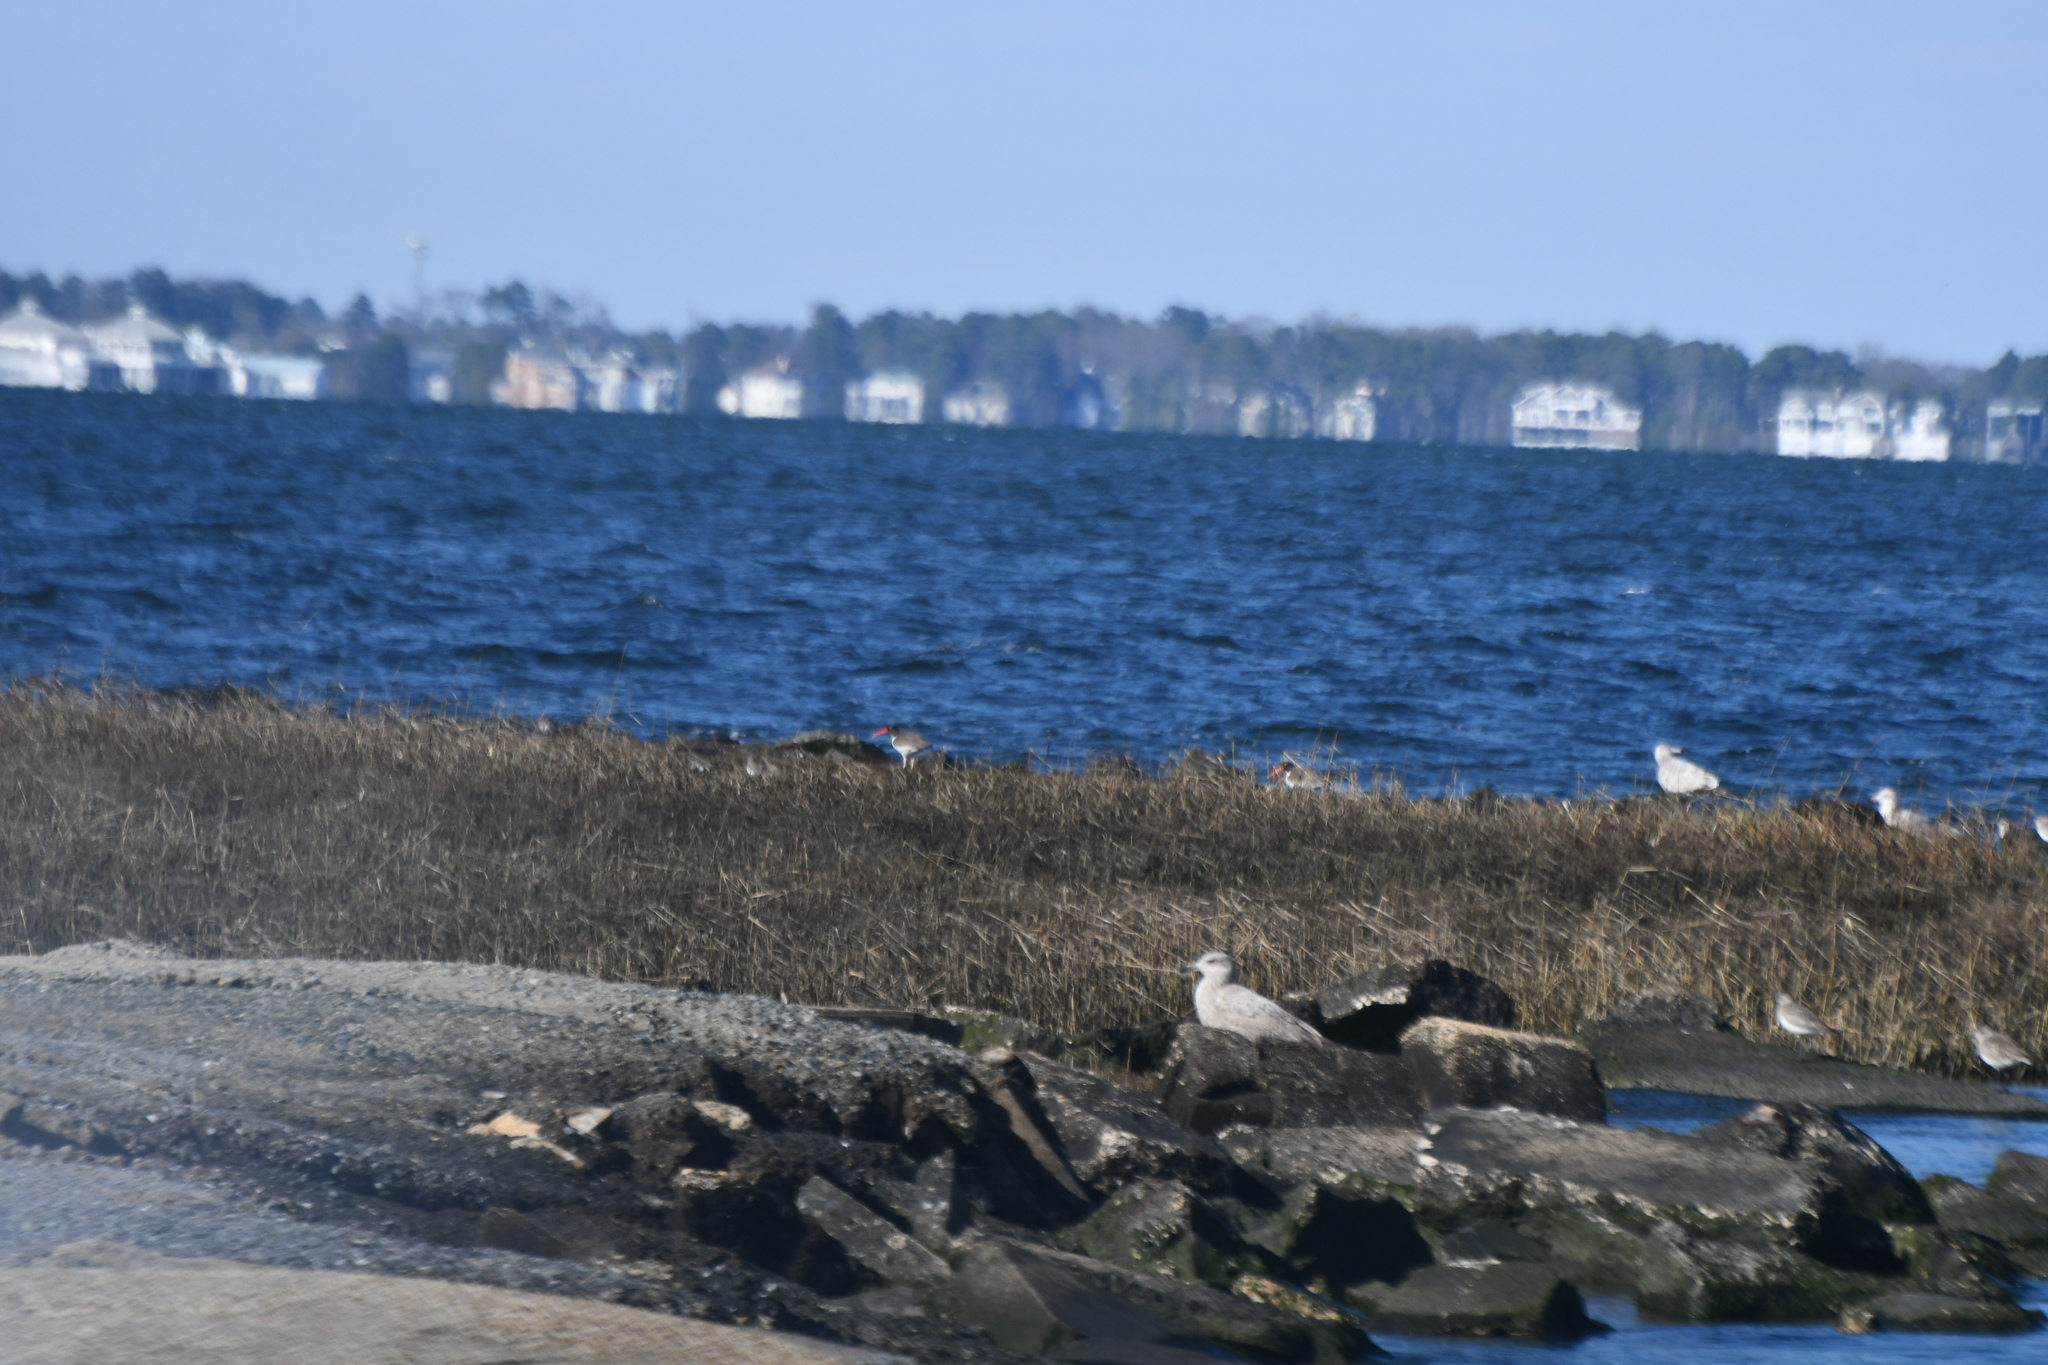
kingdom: Animalia
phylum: Chordata
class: Aves
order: Charadriiformes
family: Haematopodidae
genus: Haematopus
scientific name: Haematopus palliatus
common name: American oystercatcher
